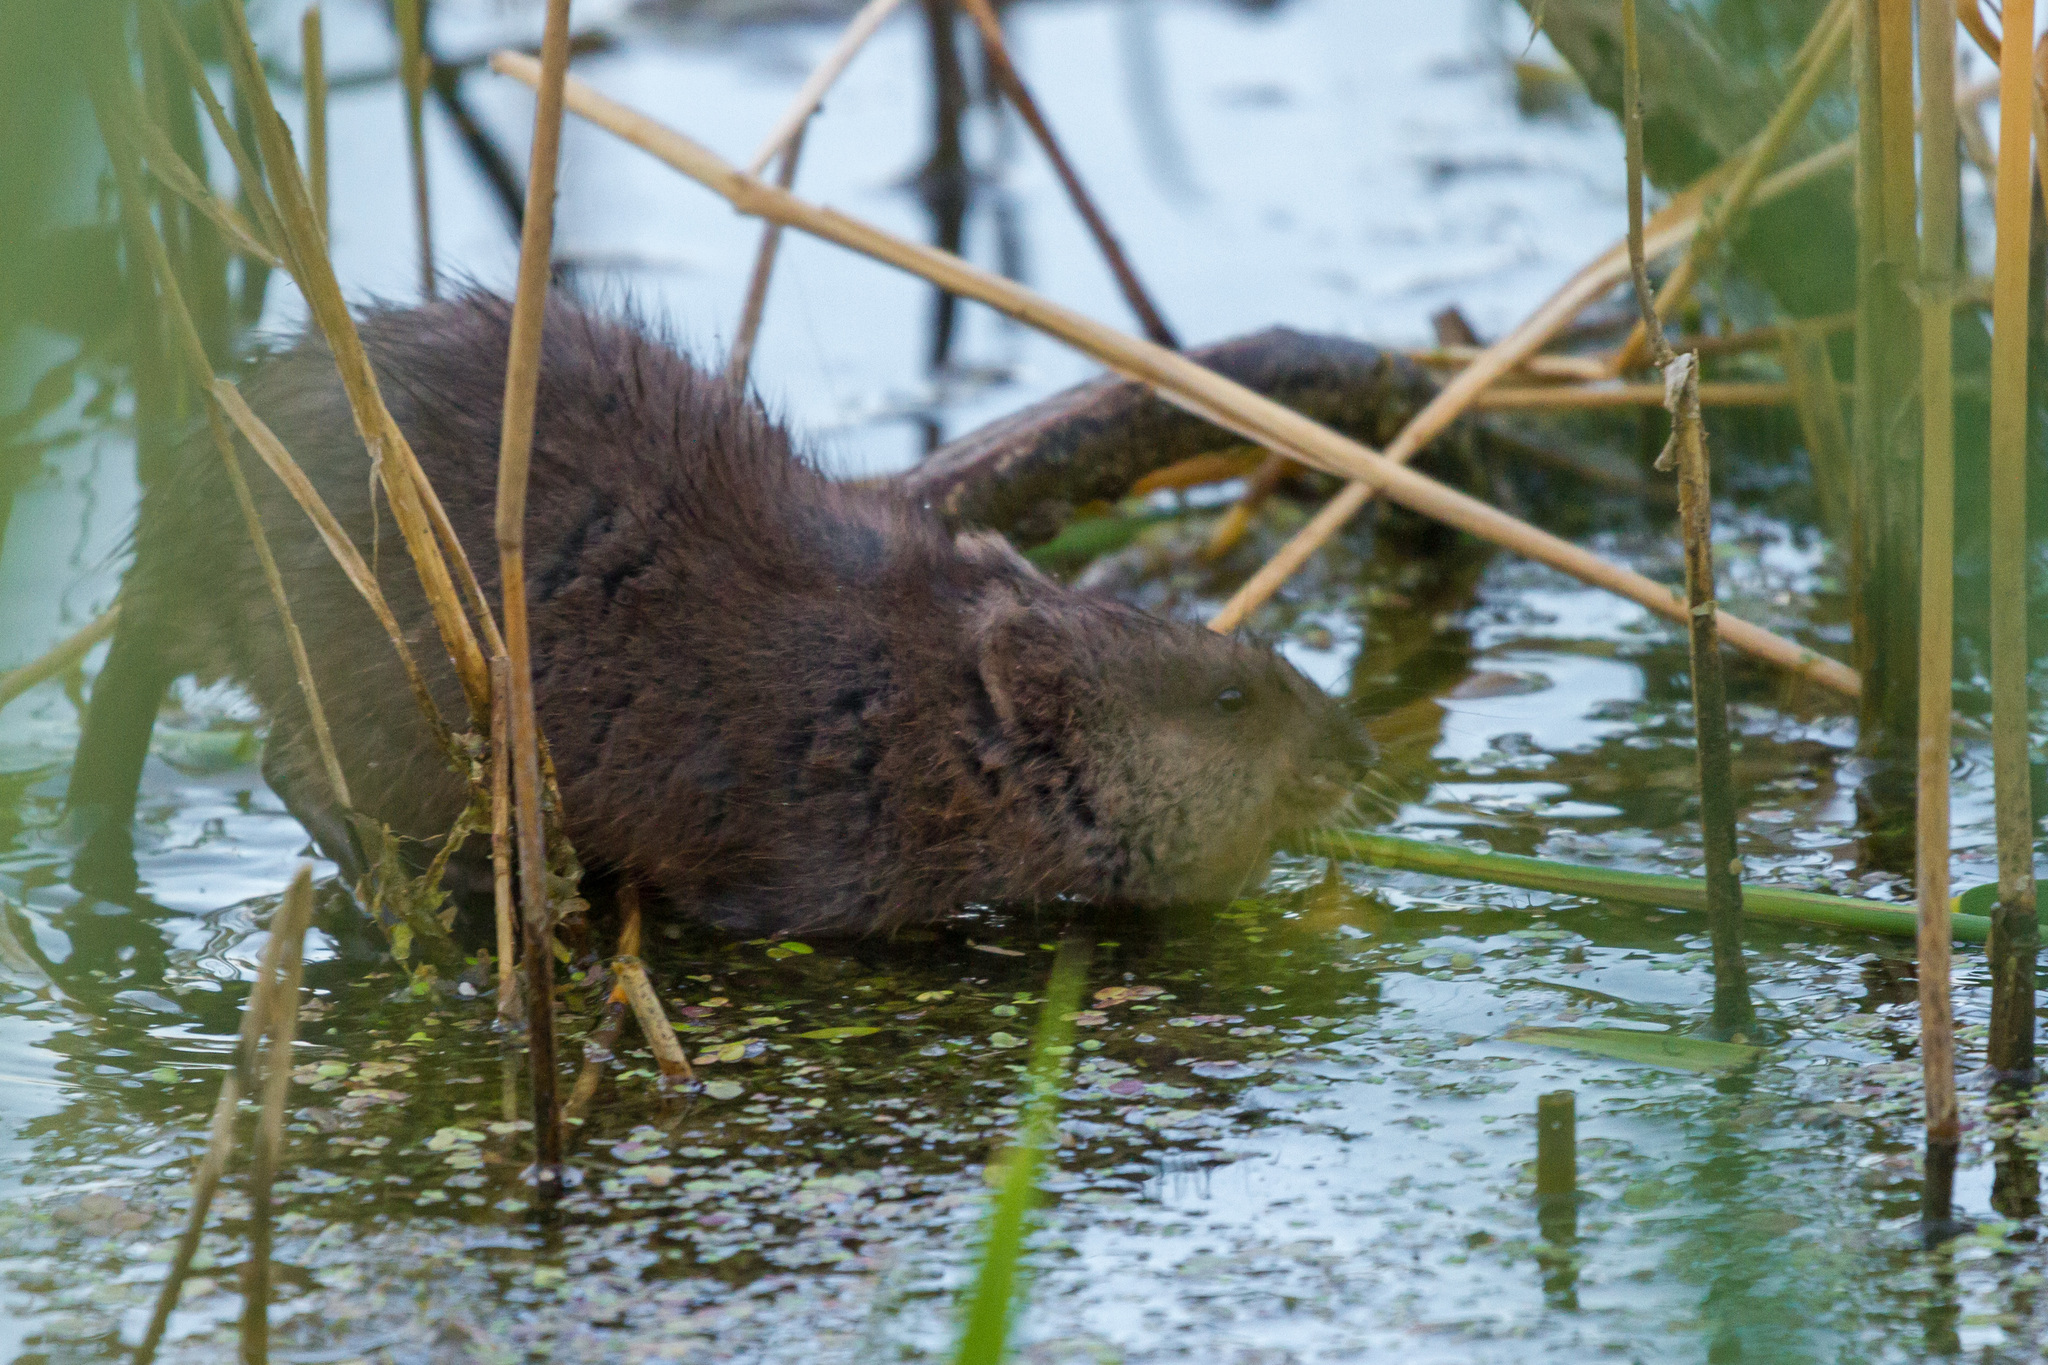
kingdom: Animalia
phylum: Chordata
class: Mammalia
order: Rodentia
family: Cricetidae
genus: Ondatra
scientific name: Ondatra zibethicus
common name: Muskrat
